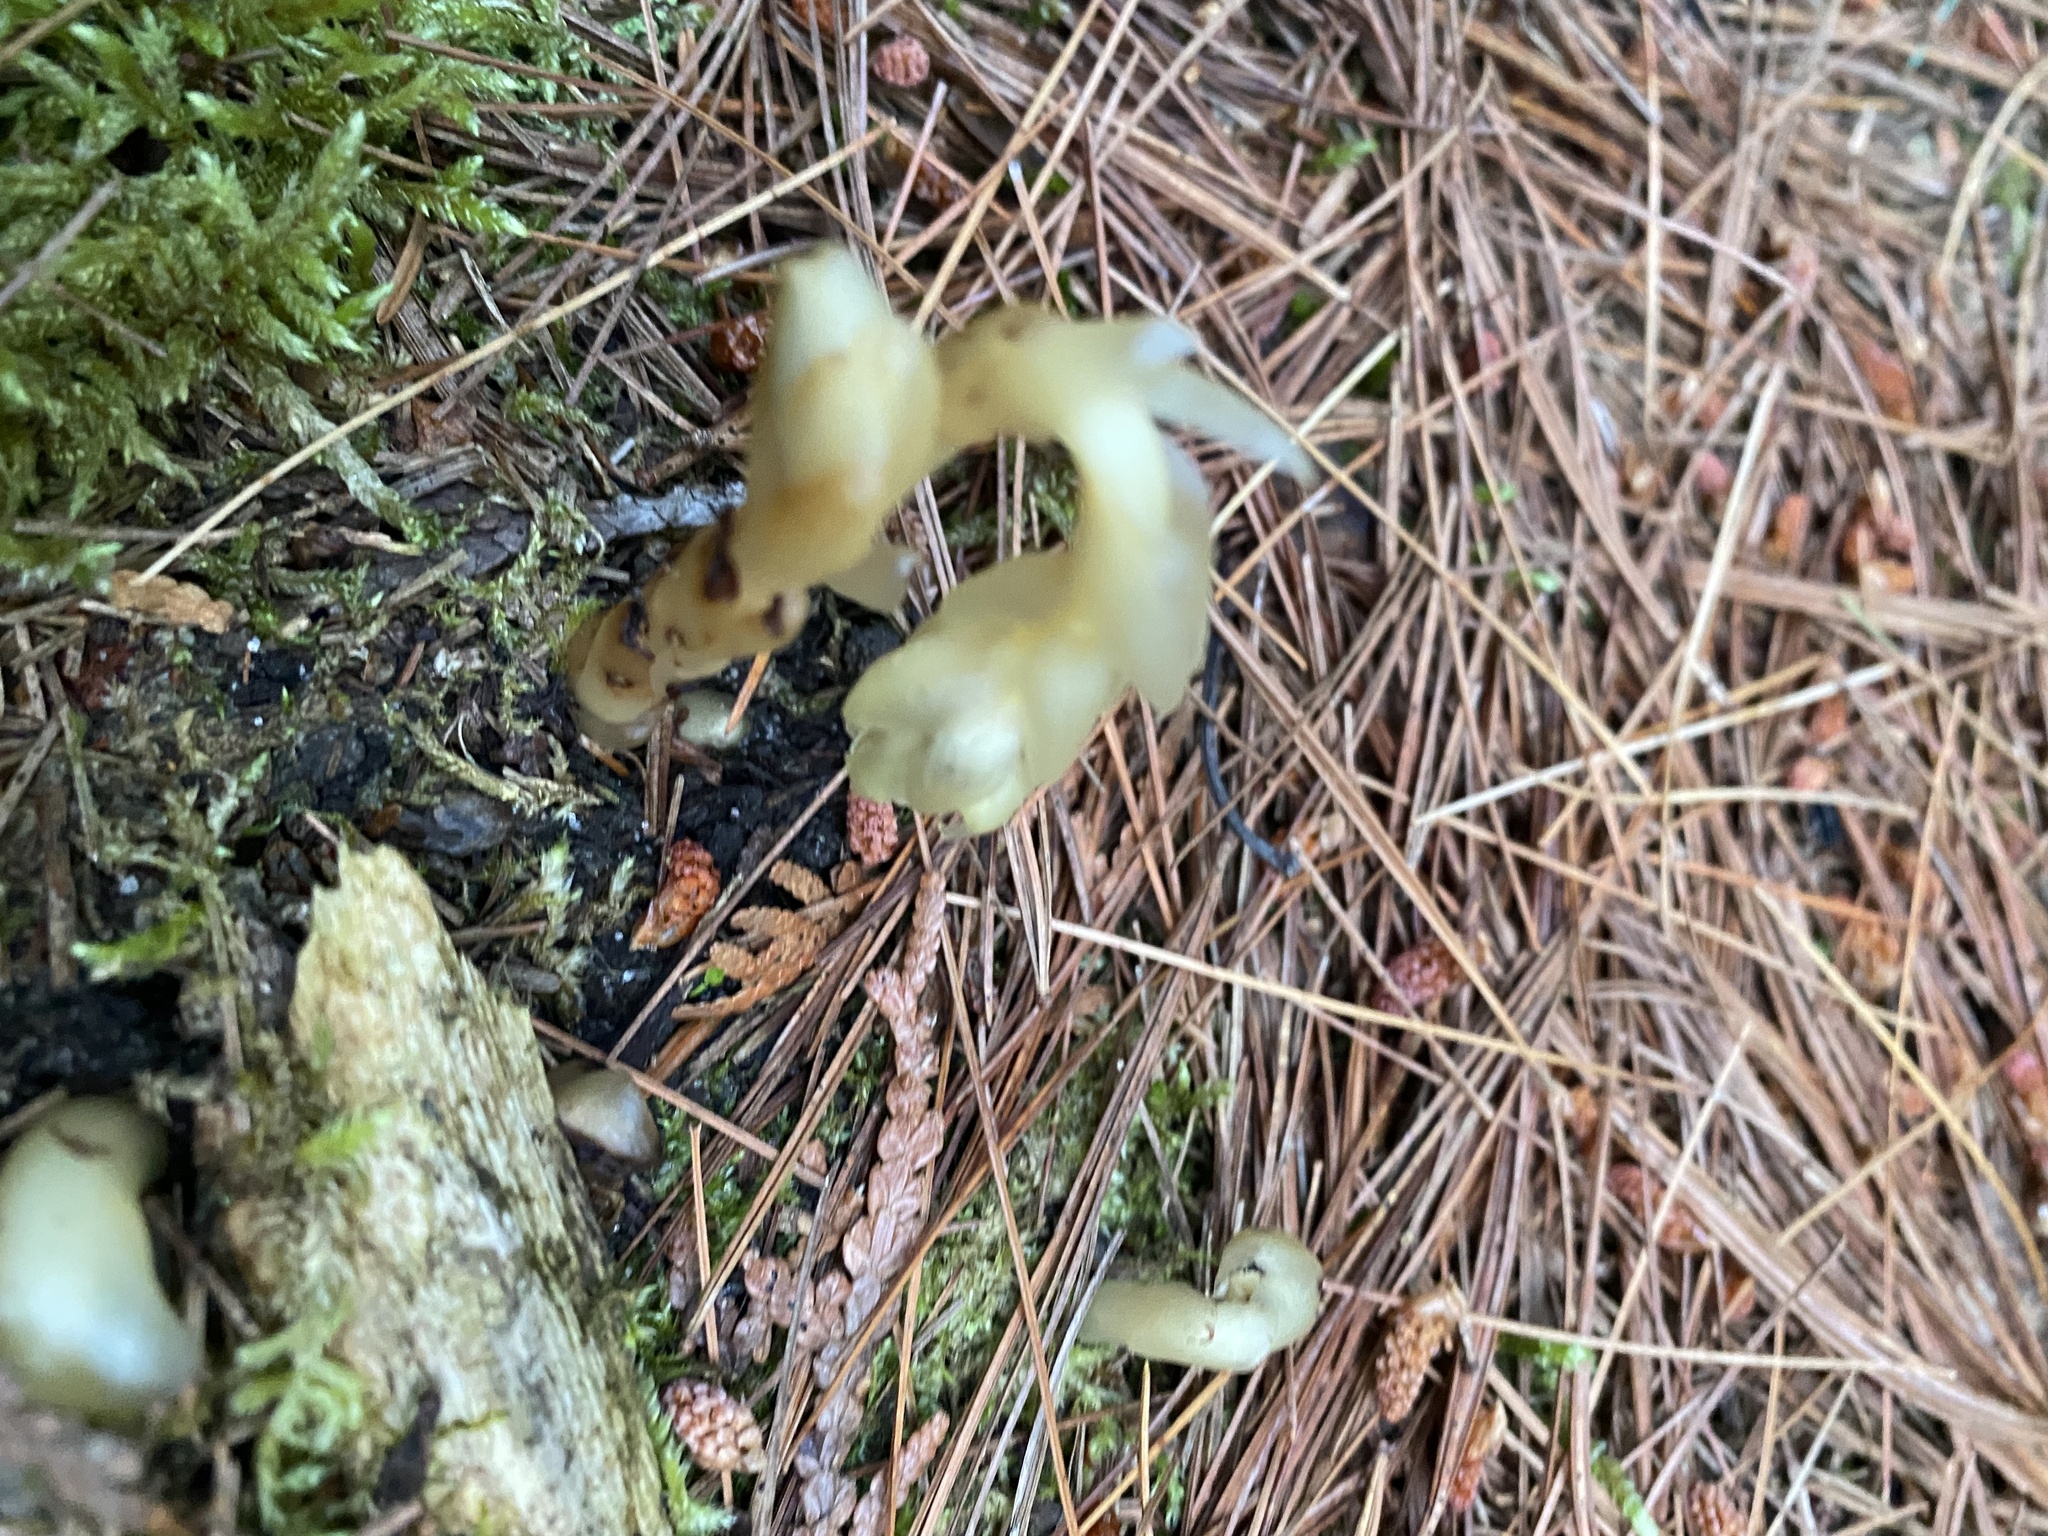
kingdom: Plantae
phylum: Tracheophyta
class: Magnoliopsida
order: Ericales
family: Ericaceae
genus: Monotropa
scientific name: Monotropa uniflora
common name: Convulsion root
